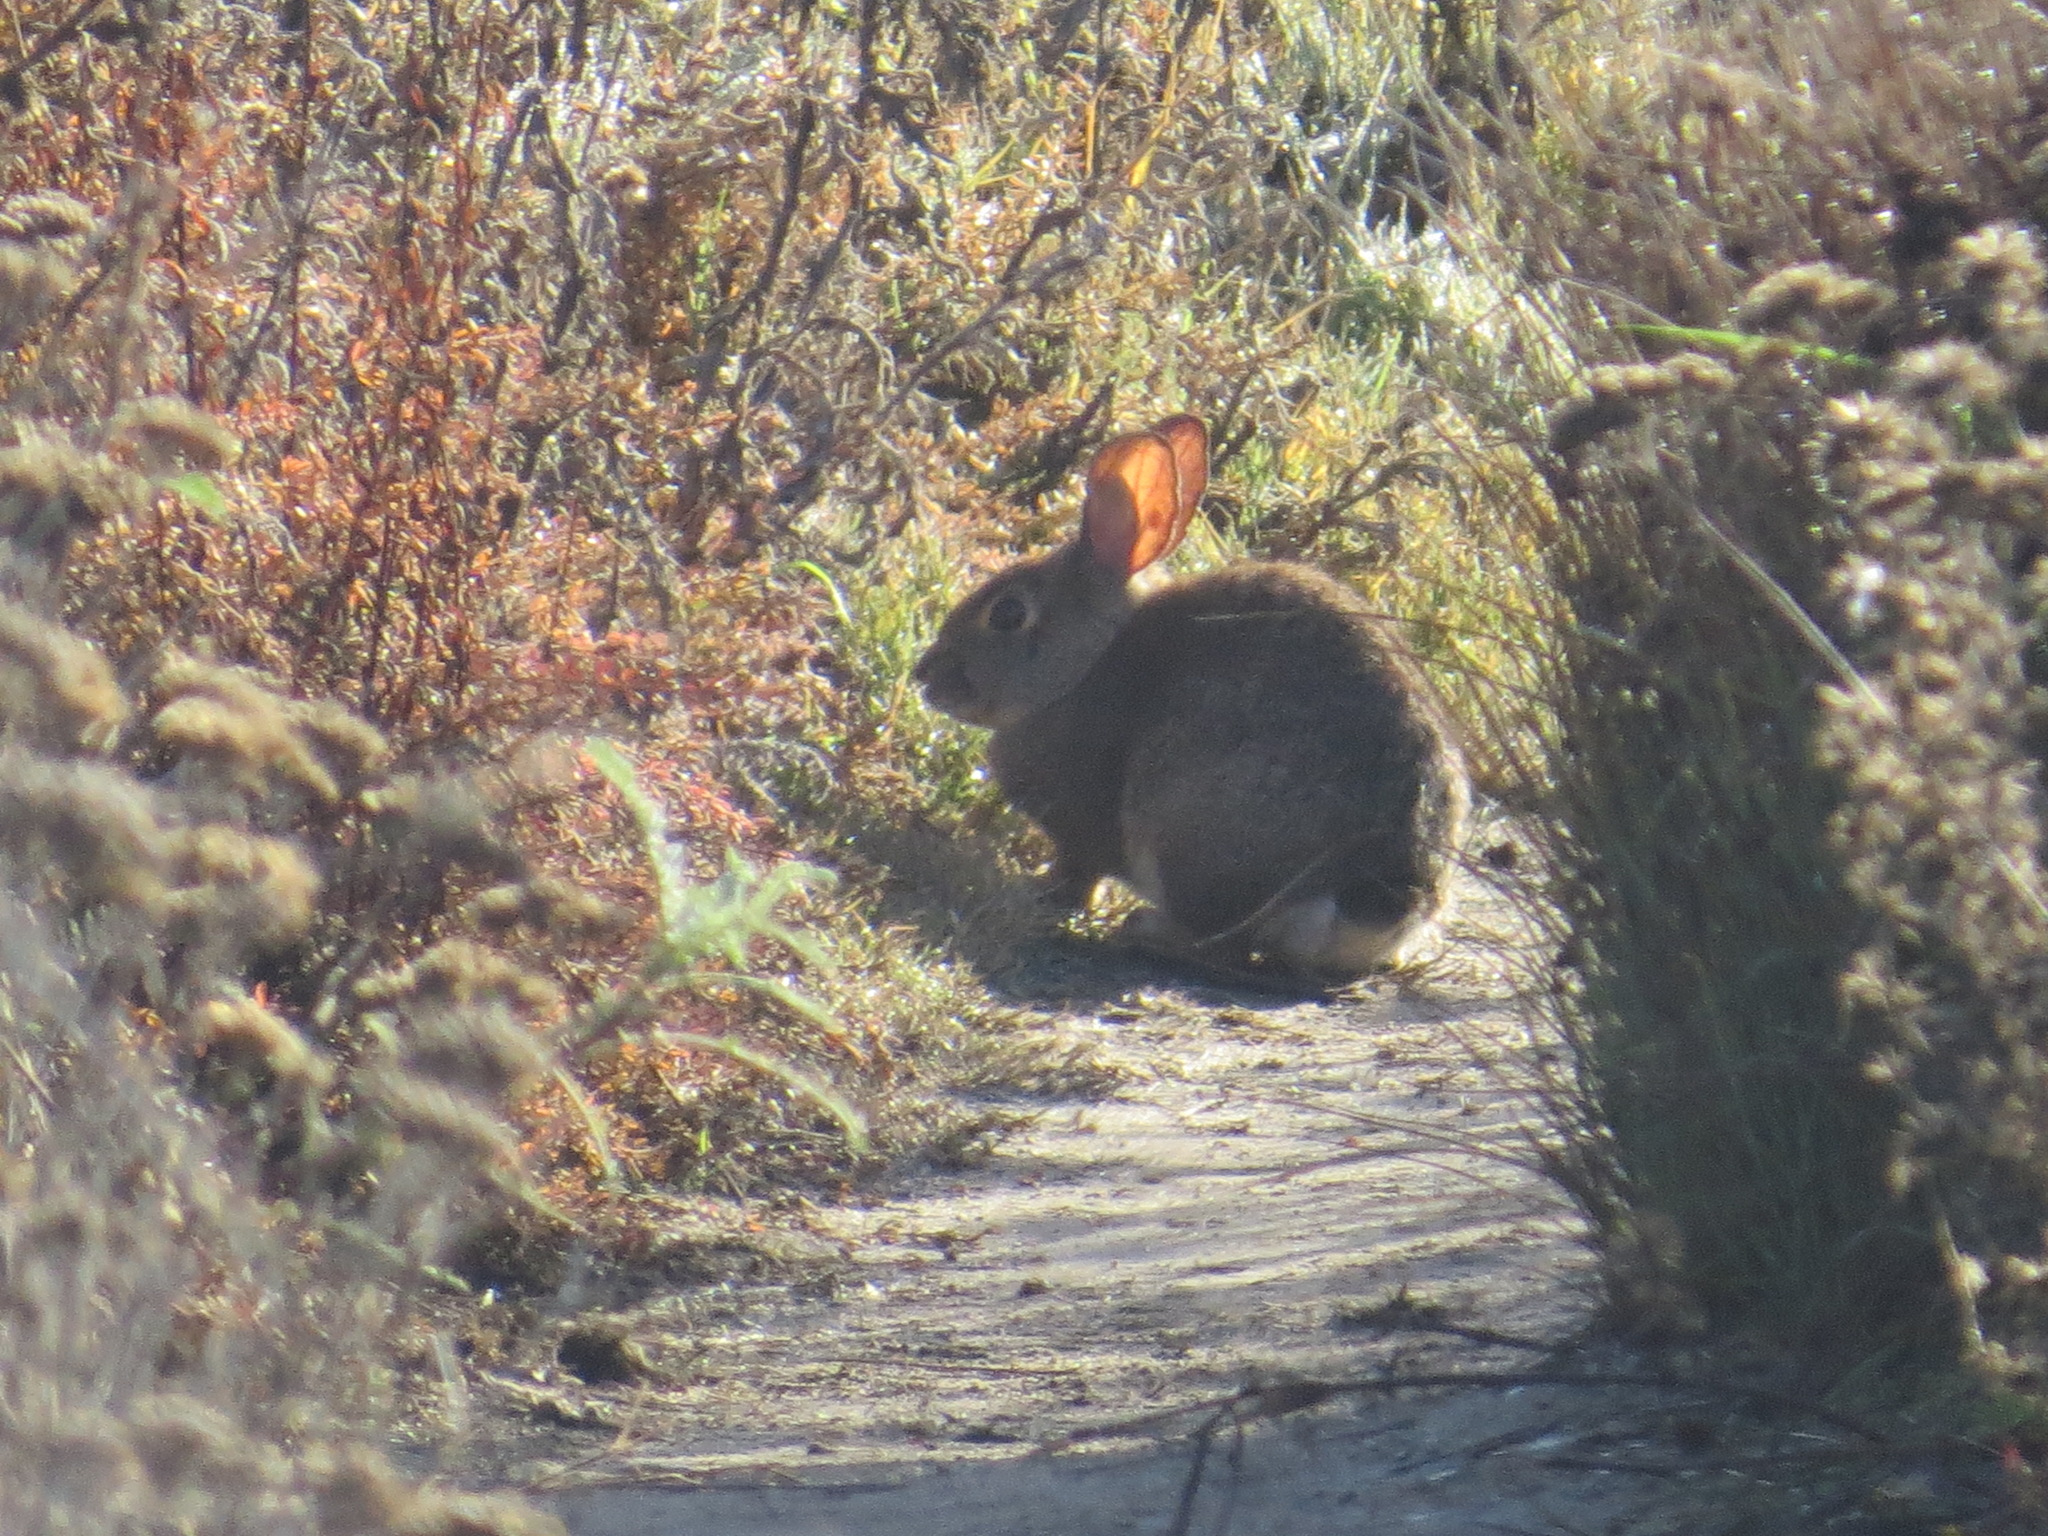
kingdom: Animalia
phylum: Chordata
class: Mammalia
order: Lagomorpha
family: Leporidae
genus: Sylvilagus
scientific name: Sylvilagus bachmani
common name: Brush rabbit
